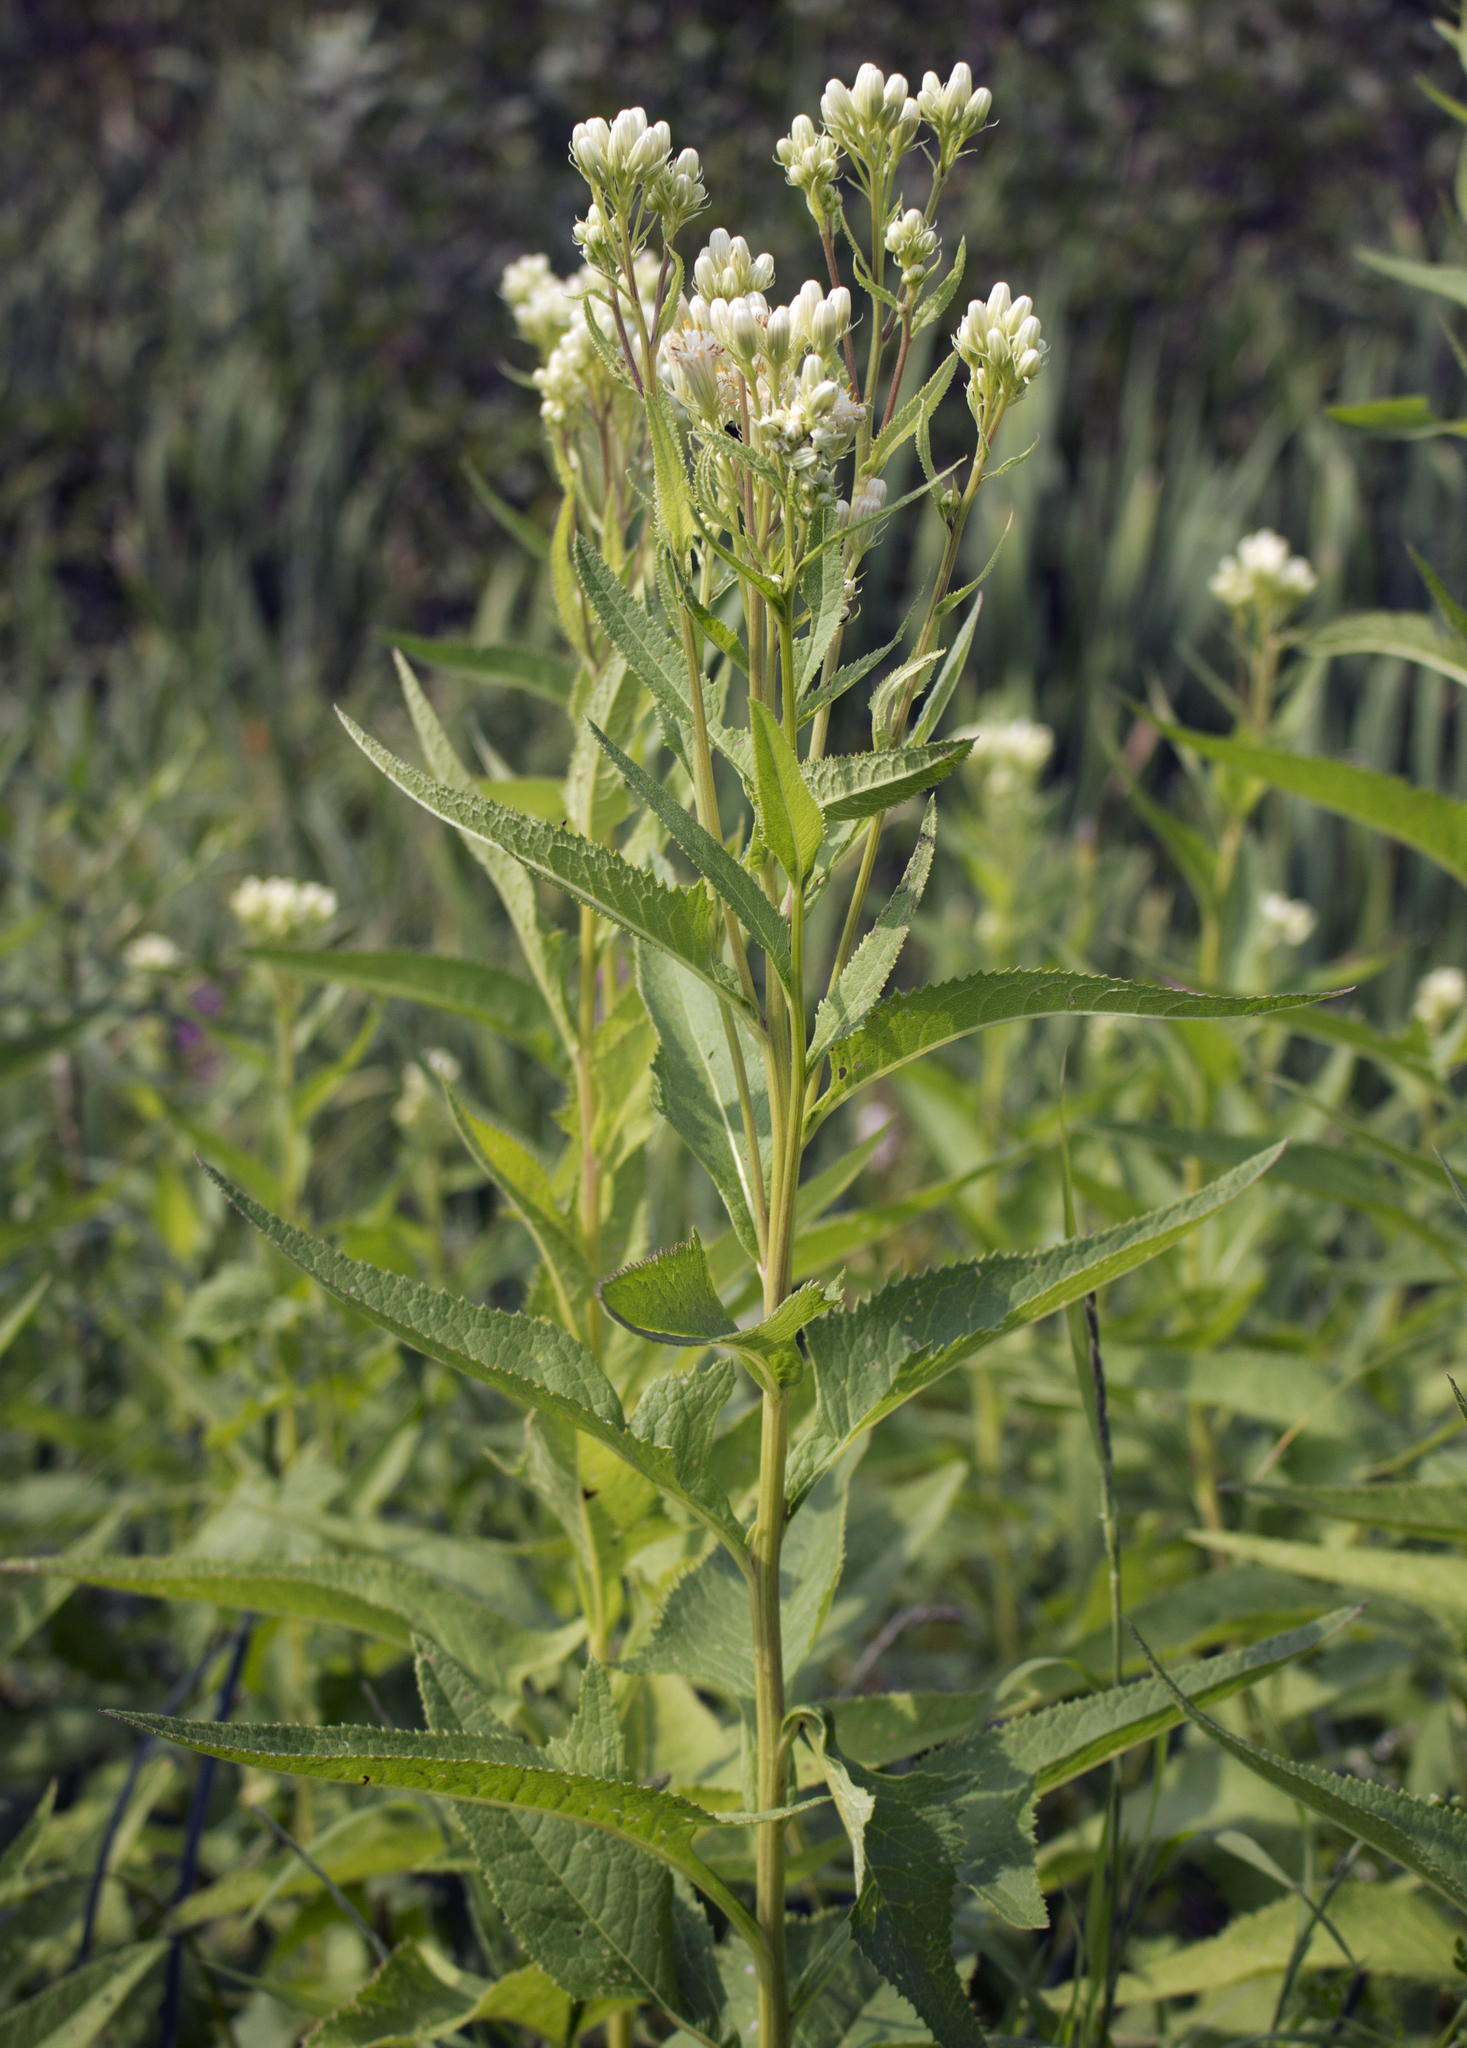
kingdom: Plantae
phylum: Tracheophyta
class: Magnoliopsida
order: Asterales
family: Asteraceae
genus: Hasteola
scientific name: Hasteola suaveolens
